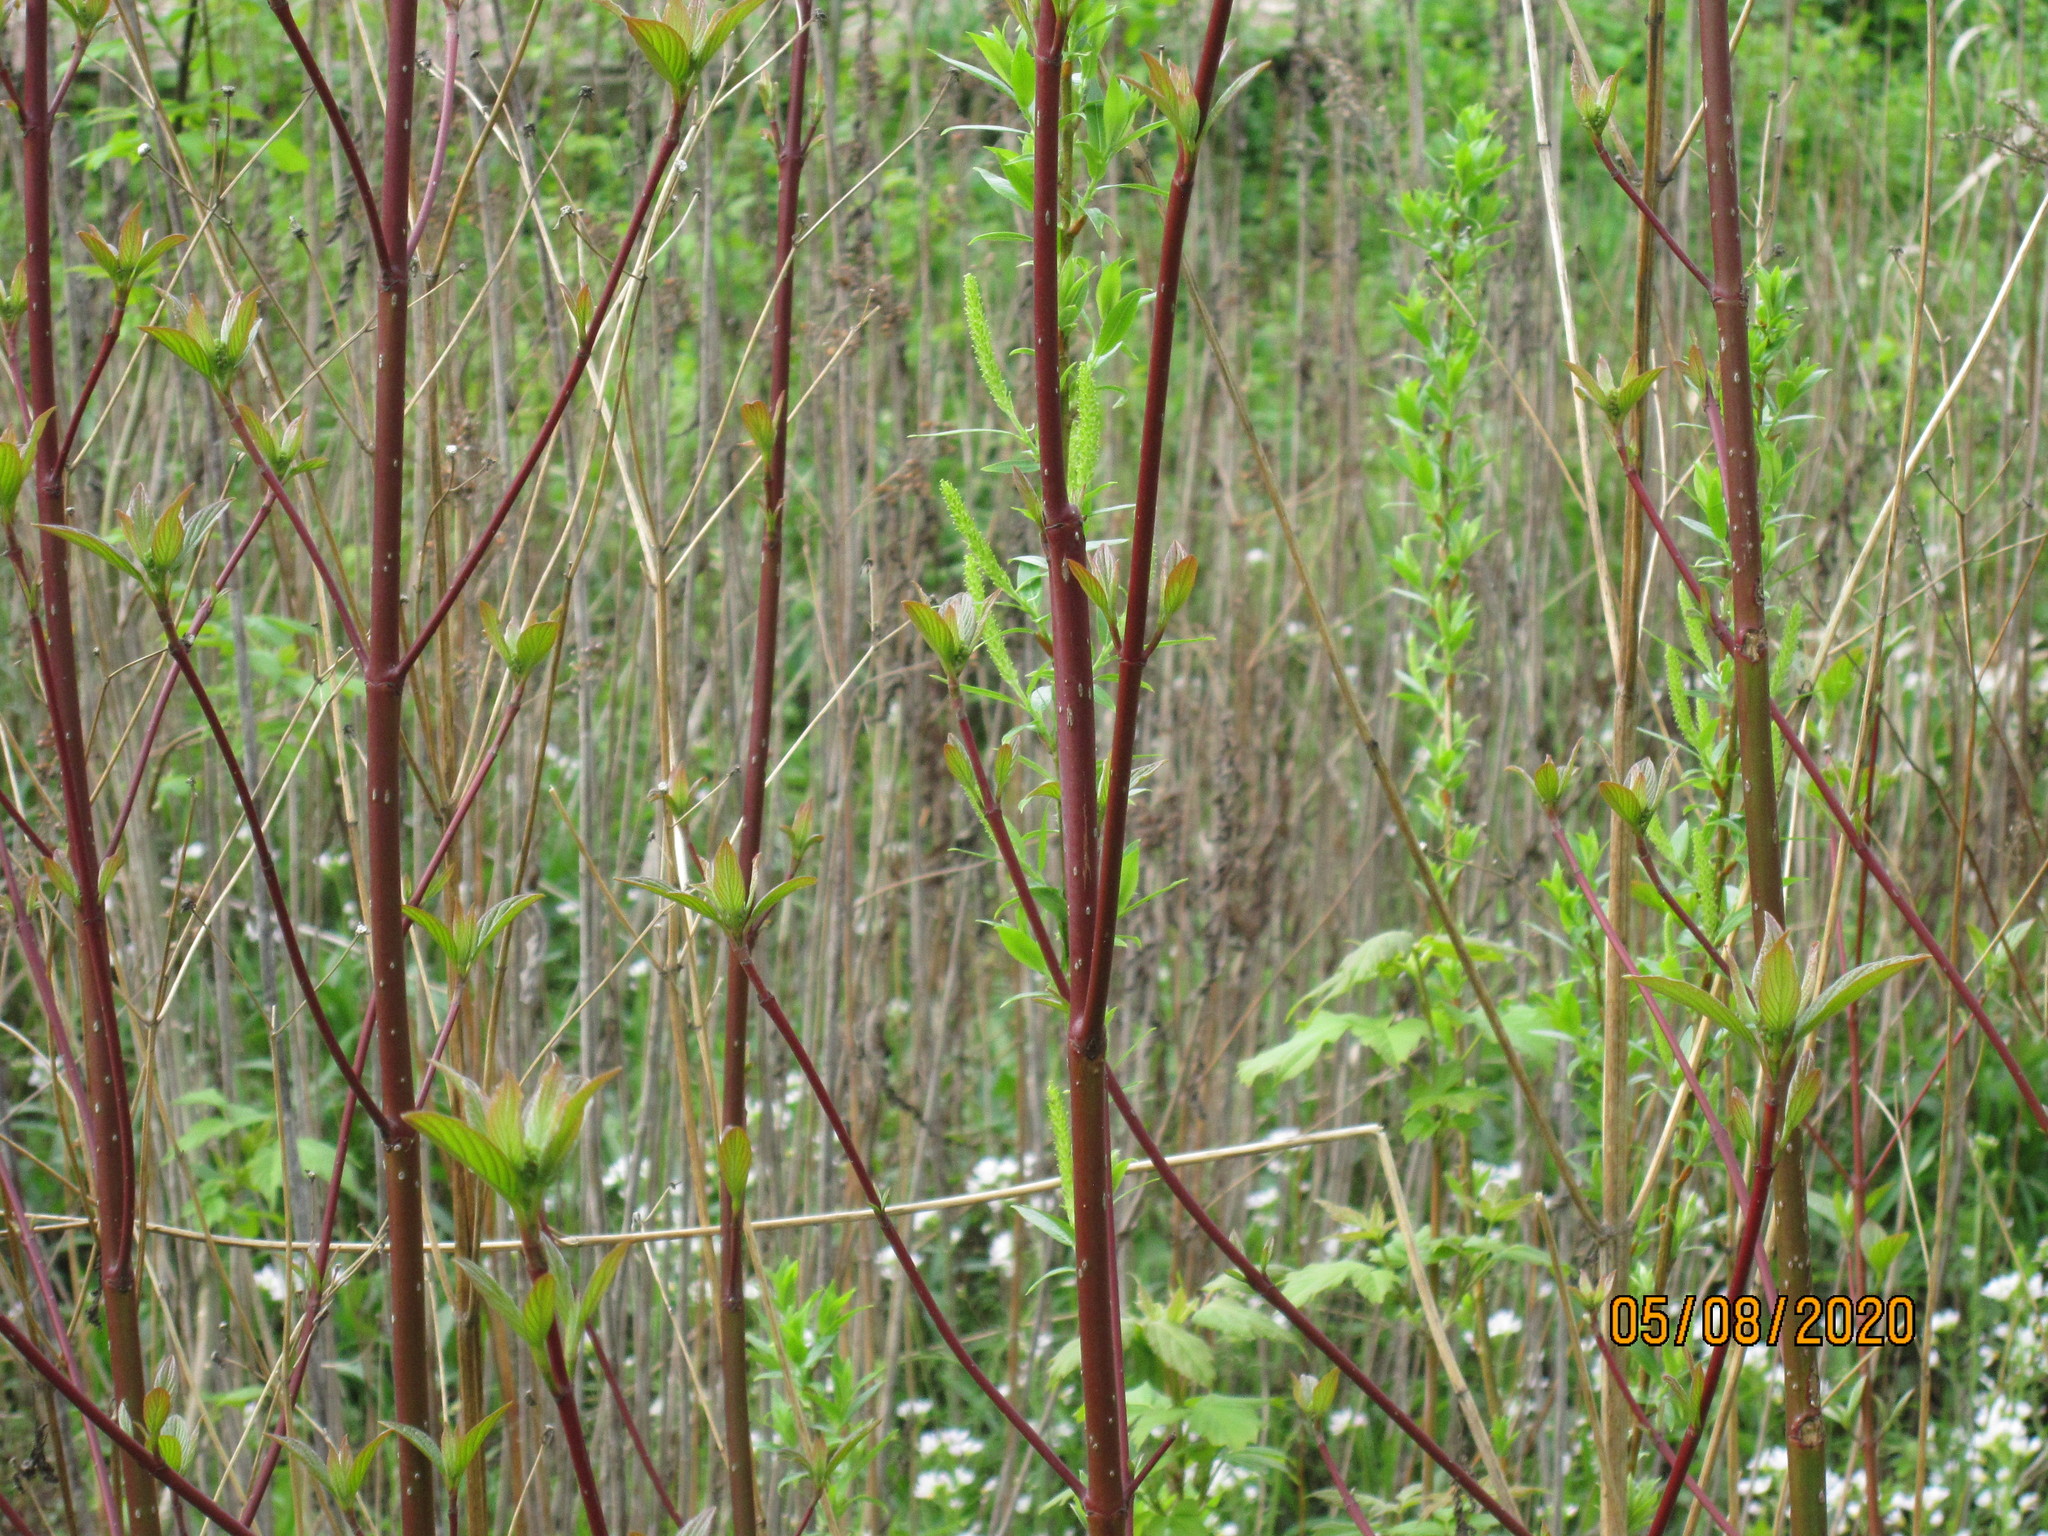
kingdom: Plantae
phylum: Tracheophyta
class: Magnoliopsida
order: Cornales
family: Cornaceae
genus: Cornus
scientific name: Cornus alba
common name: White dogwood
